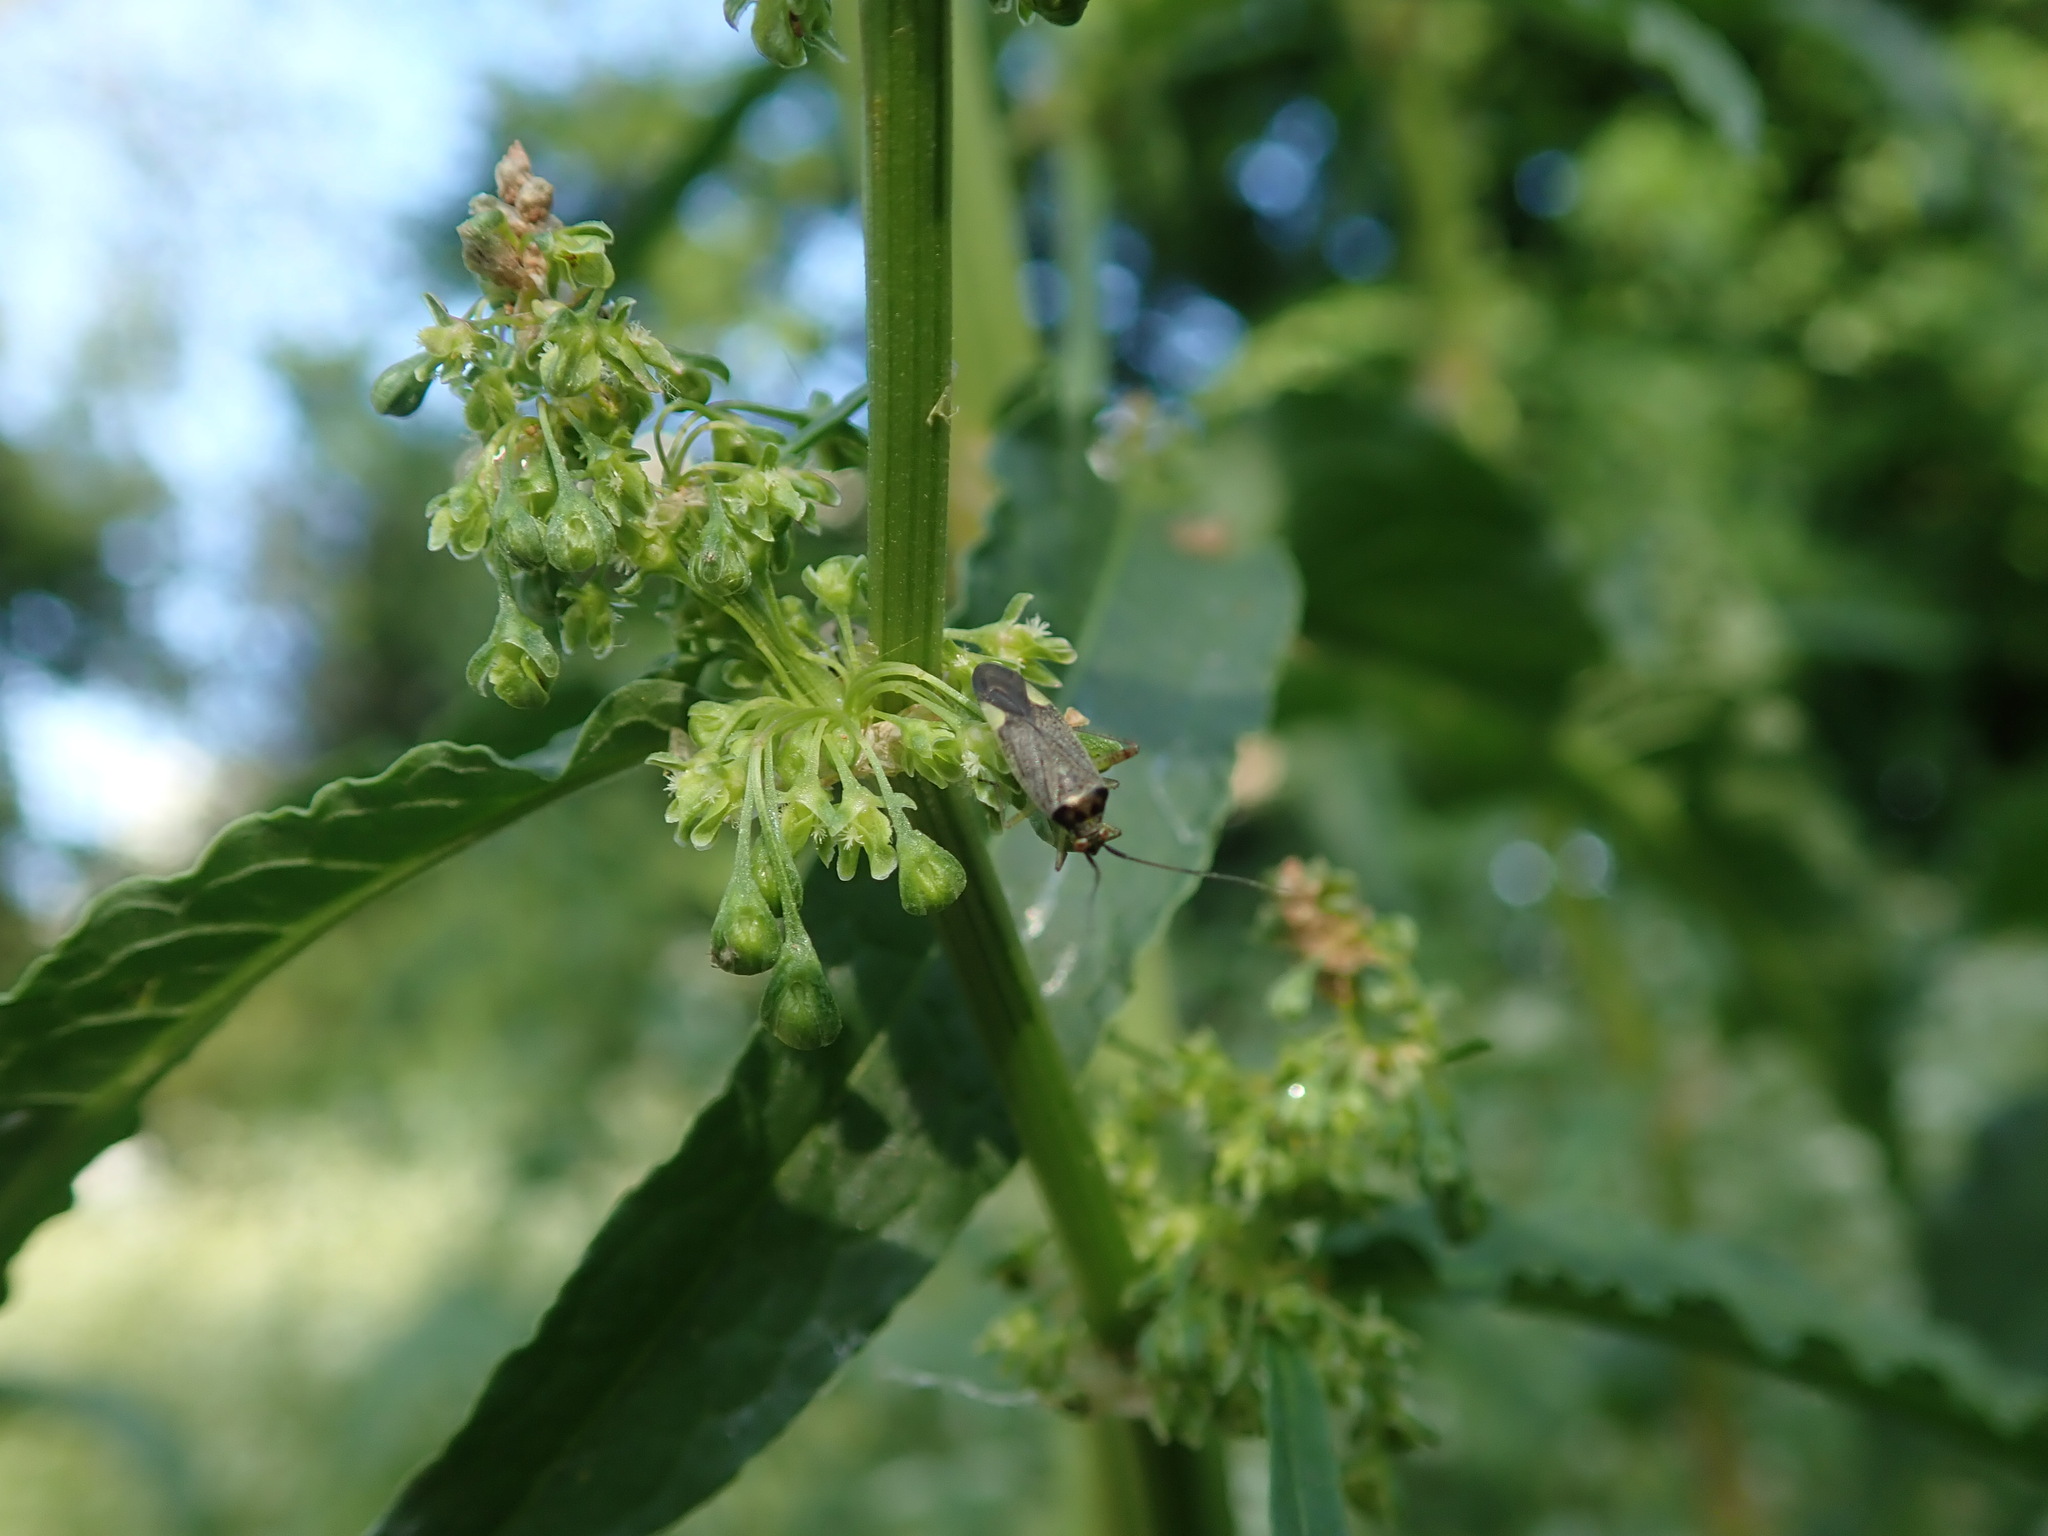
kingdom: Animalia
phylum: Arthropoda
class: Insecta
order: Hemiptera
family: Miridae
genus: Closterotomus
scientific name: Closterotomus trivialis
